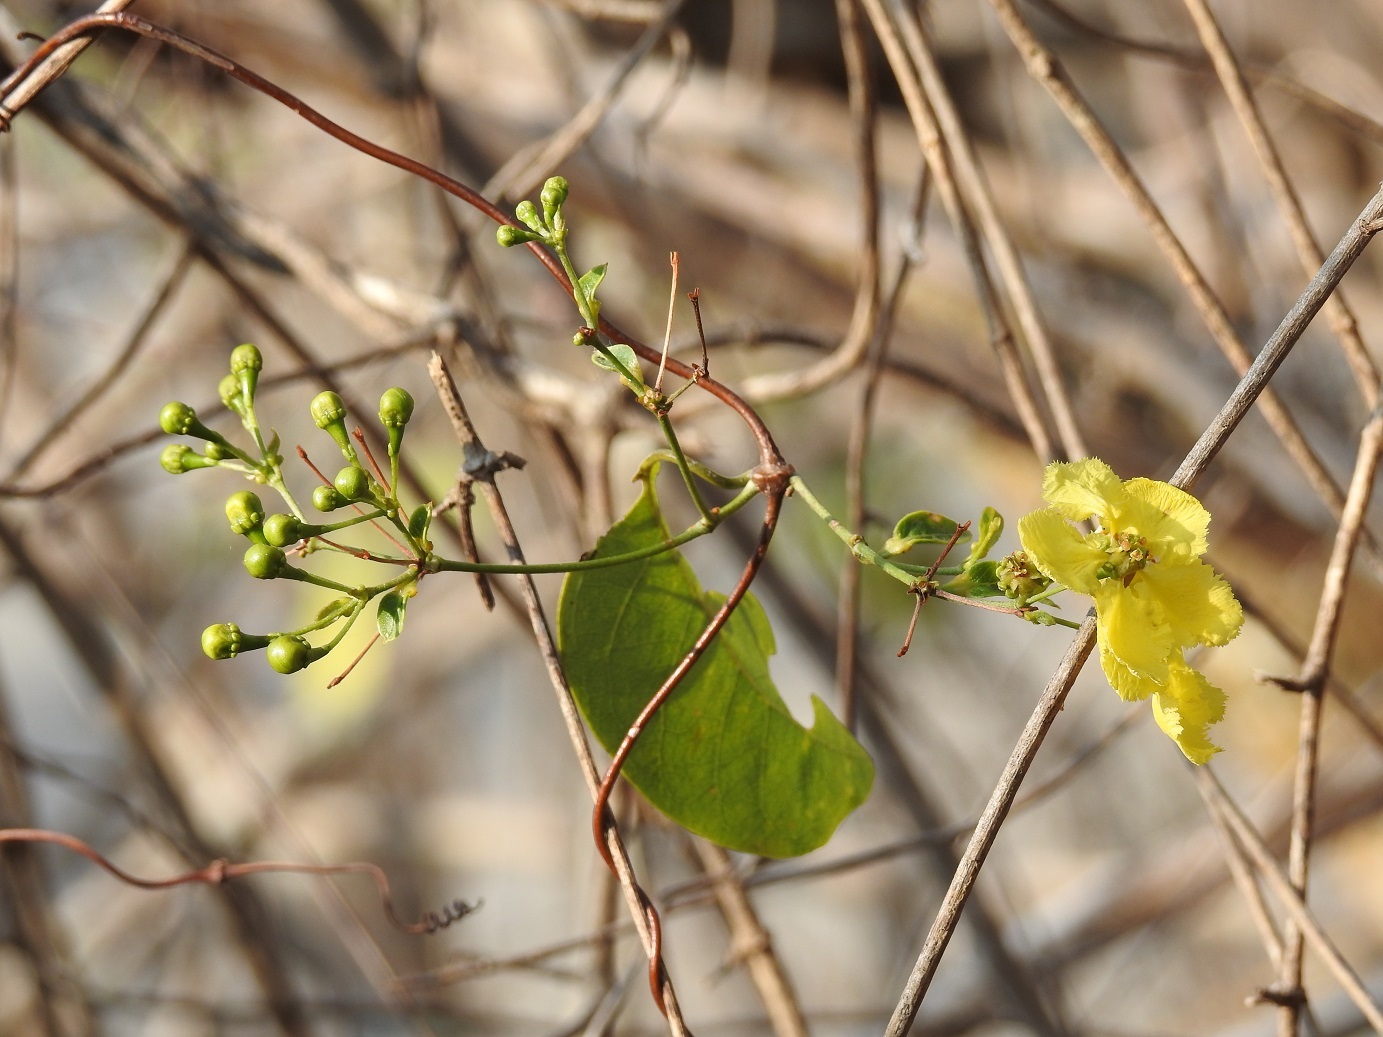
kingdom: Plantae
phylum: Tracheophyta
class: Magnoliopsida
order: Malpighiales
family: Malpighiaceae
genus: Stigmaphyllon
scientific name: Stigmaphyllon ellipticum
